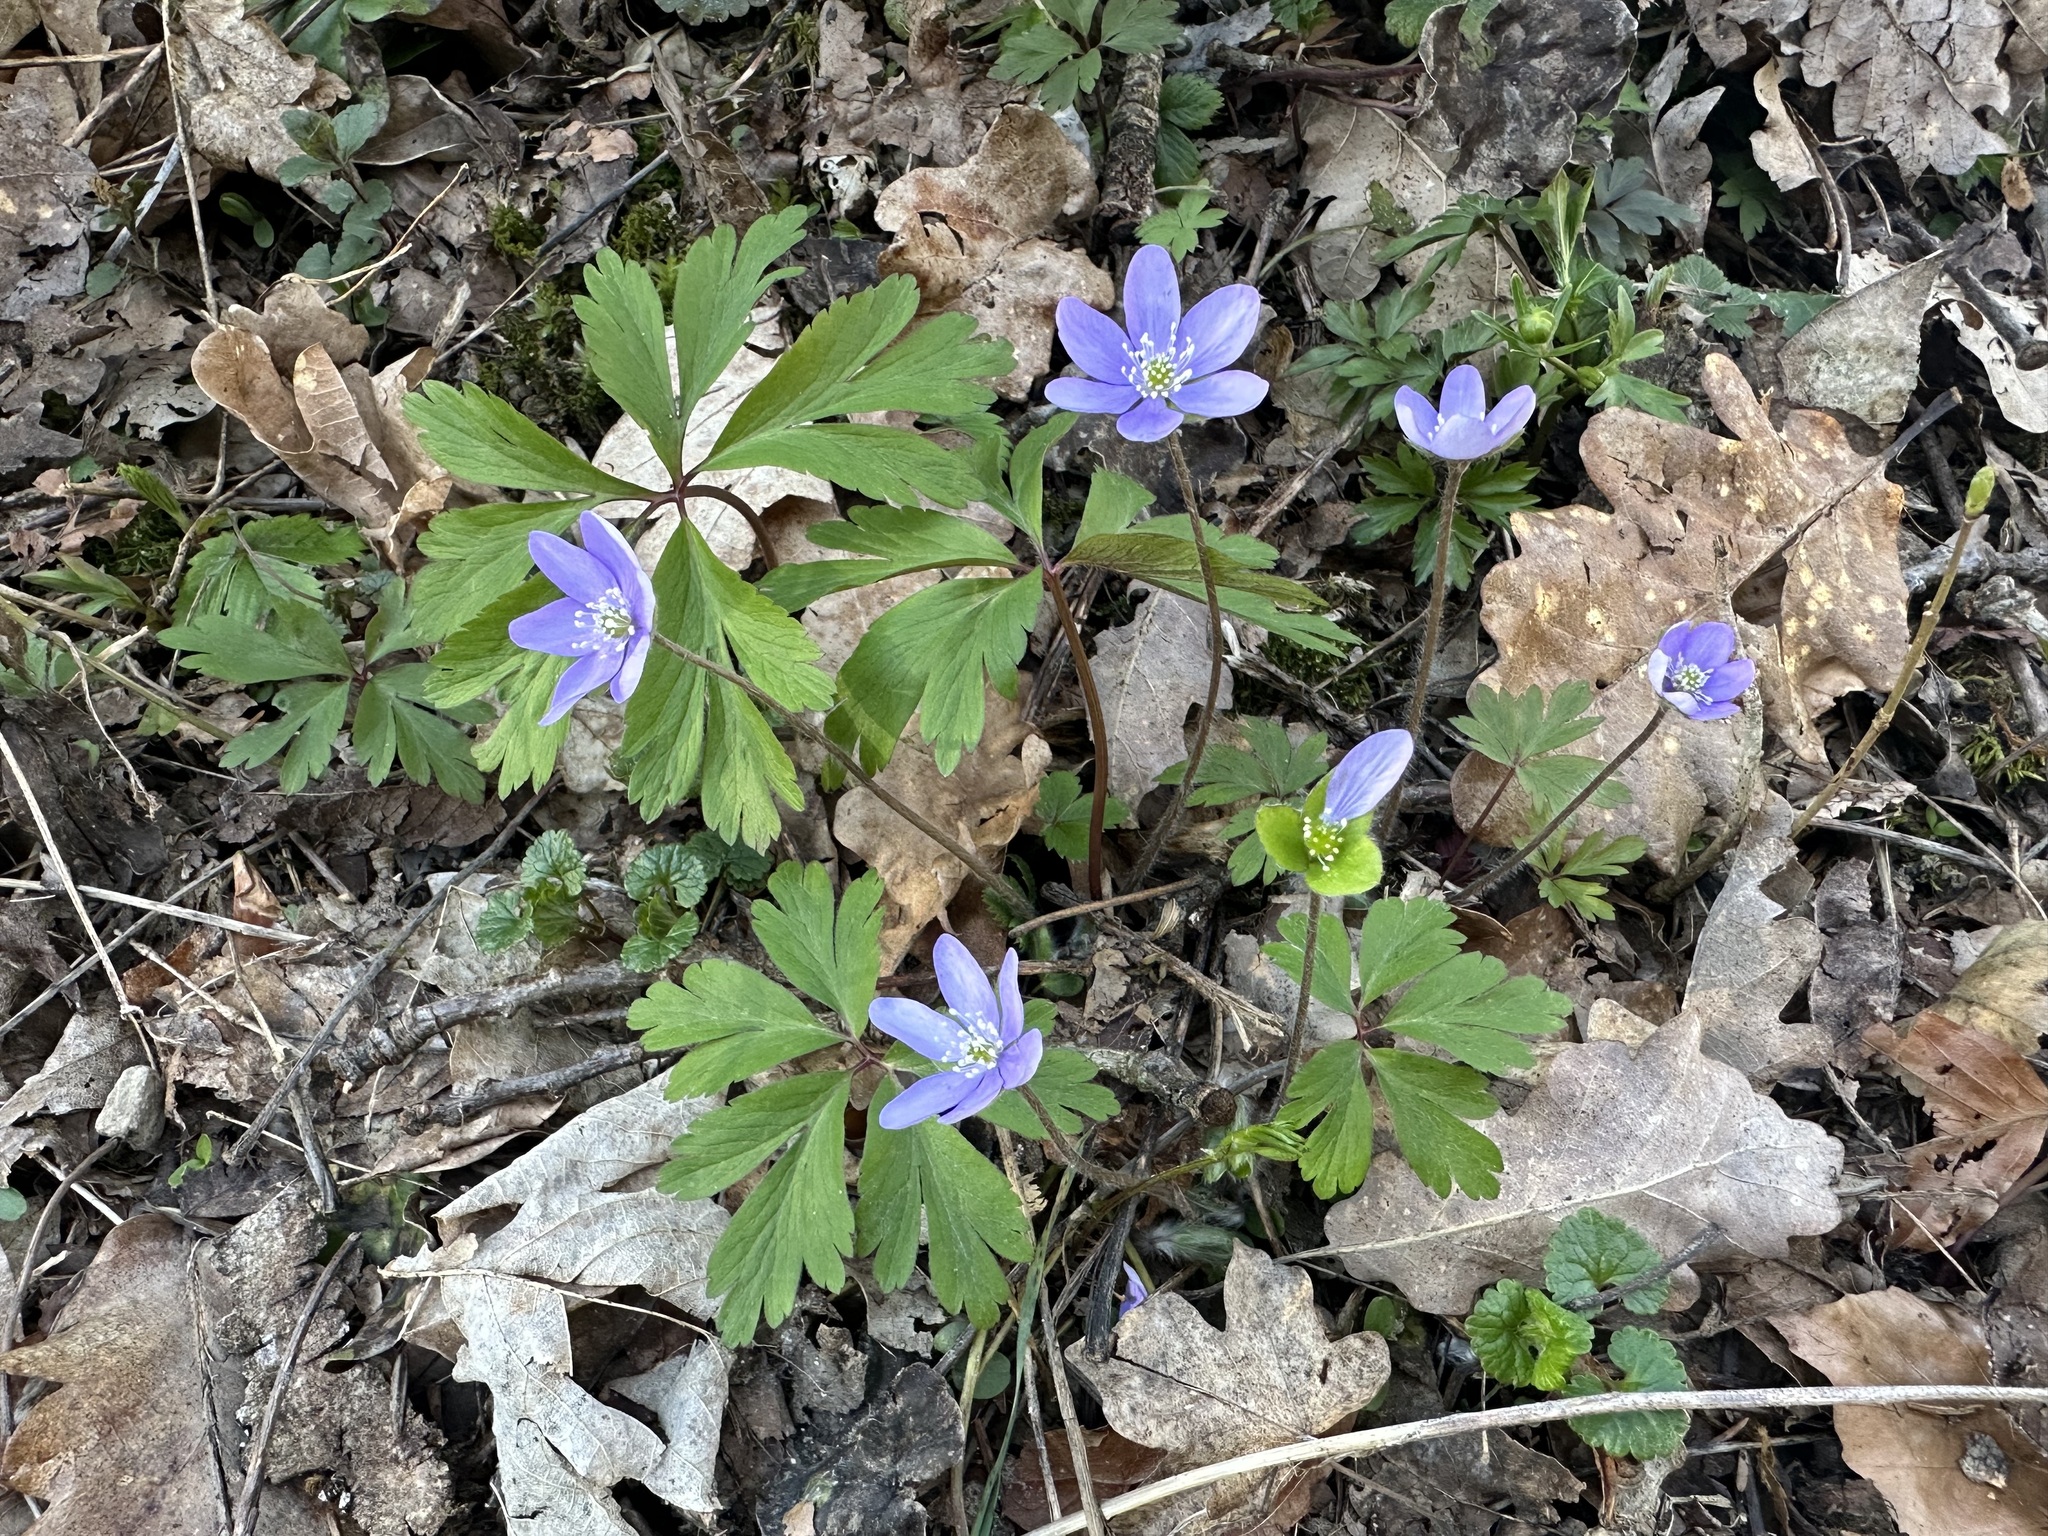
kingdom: Plantae
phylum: Tracheophyta
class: Magnoliopsida
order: Ranunculales
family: Ranunculaceae
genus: Hepatica
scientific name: Hepatica nobilis
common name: Liverleaf
